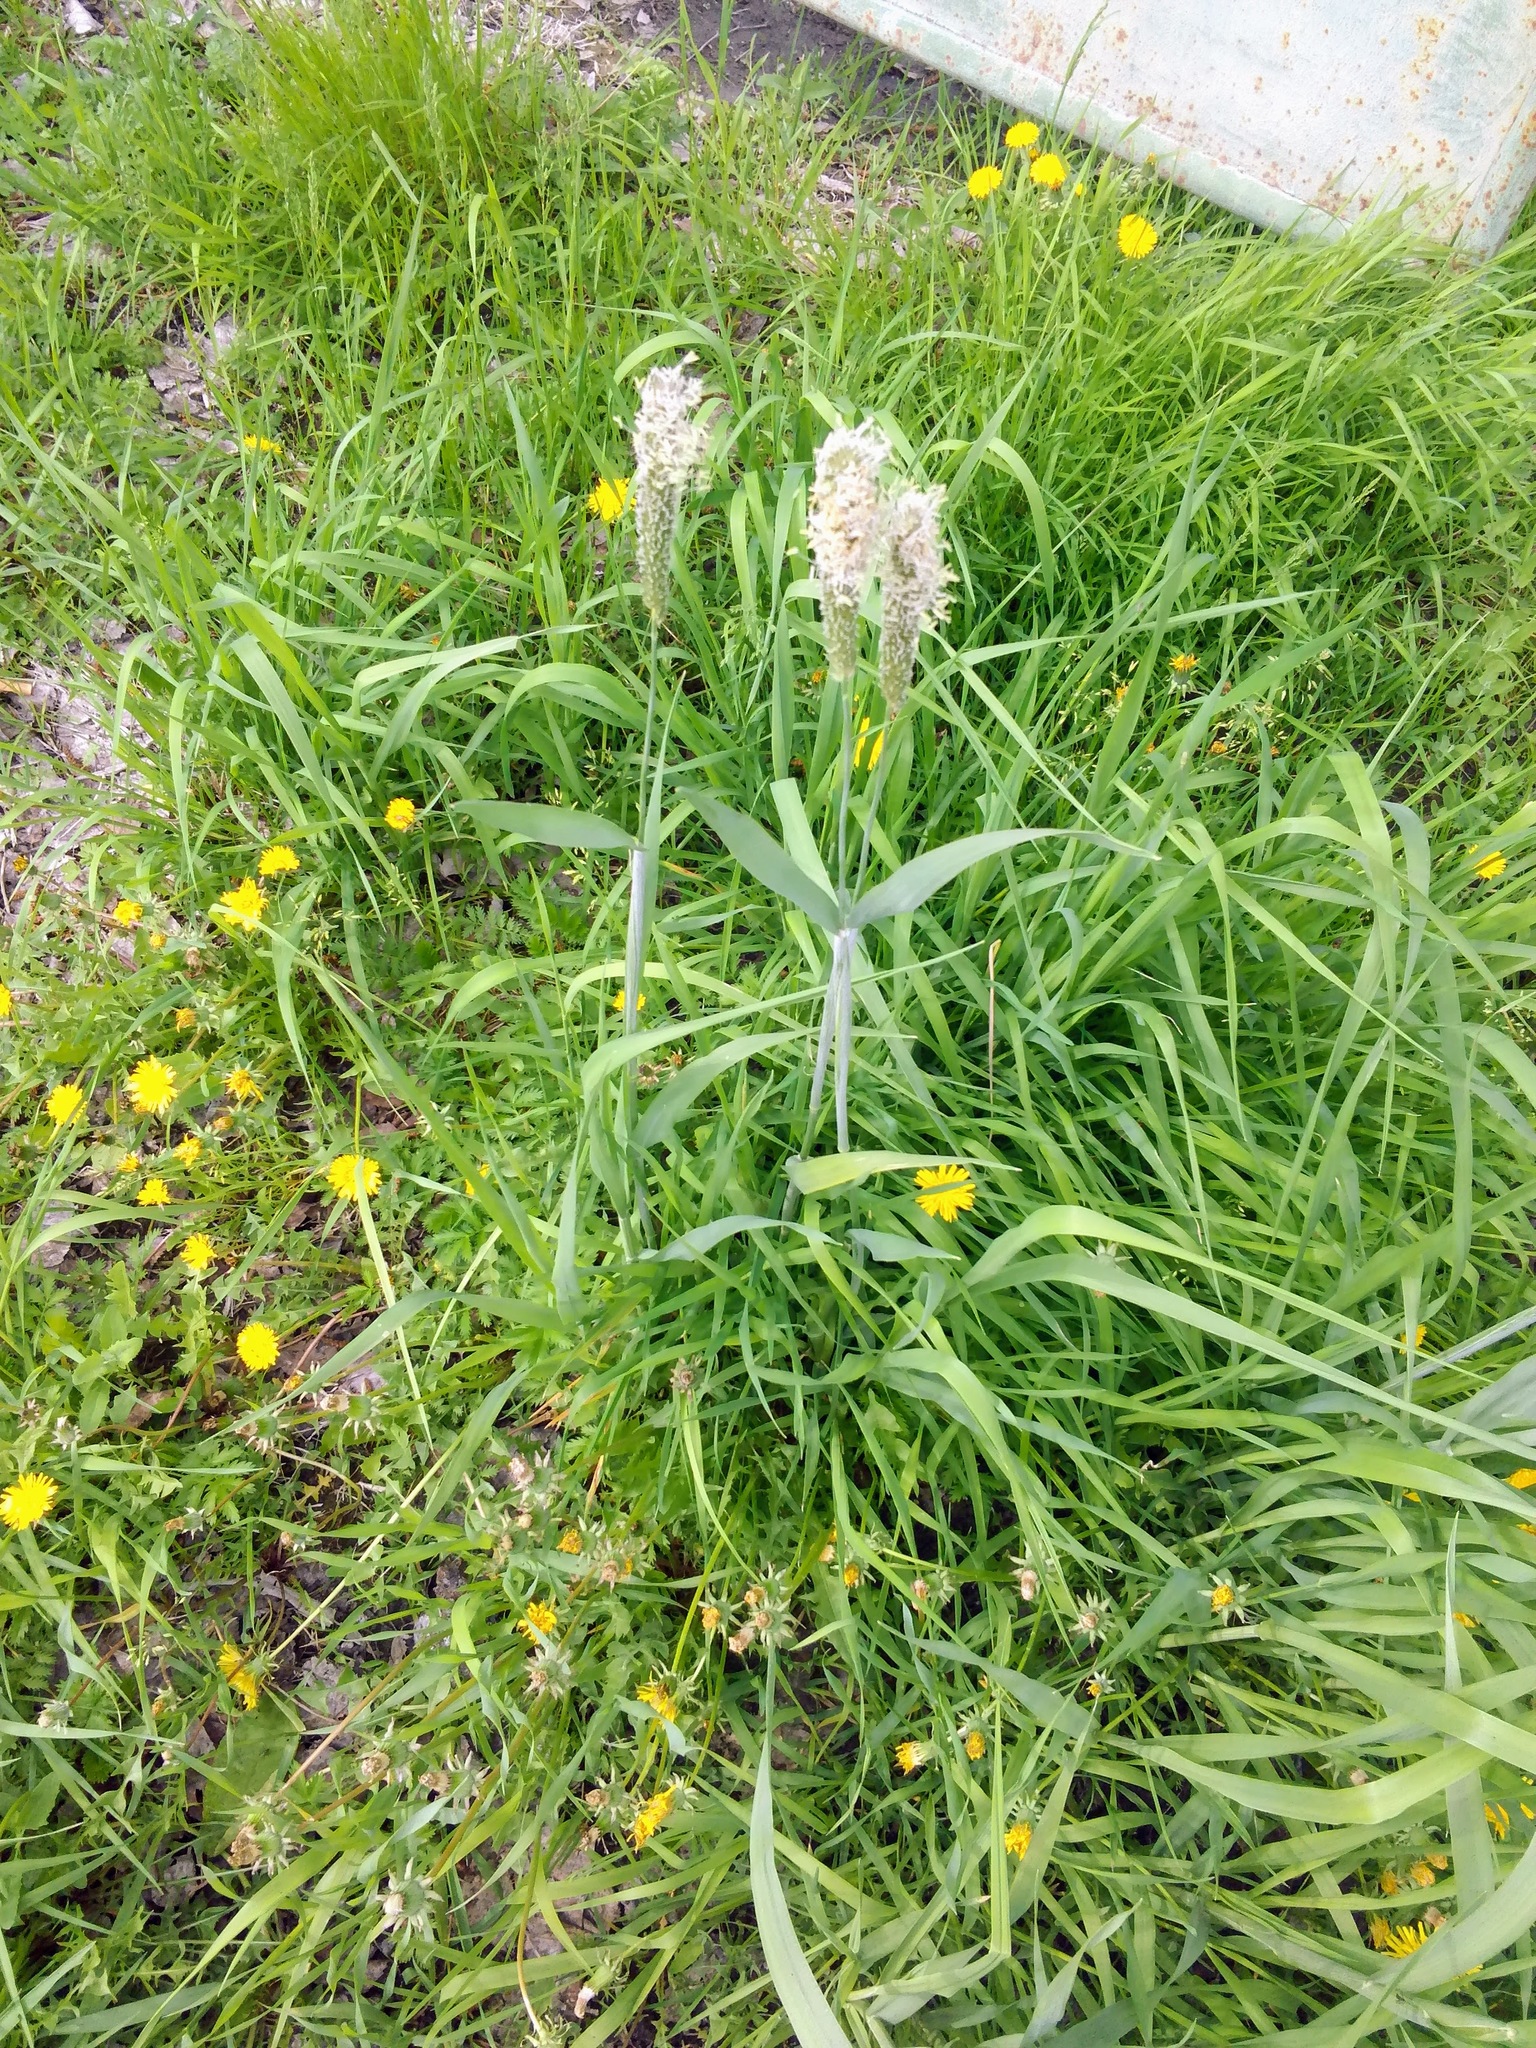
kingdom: Plantae
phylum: Tracheophyta
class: Liliopsida
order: Poales
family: Poaceae
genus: Alopecurus
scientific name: Alopecurus pratensis
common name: Meadow foxtail
